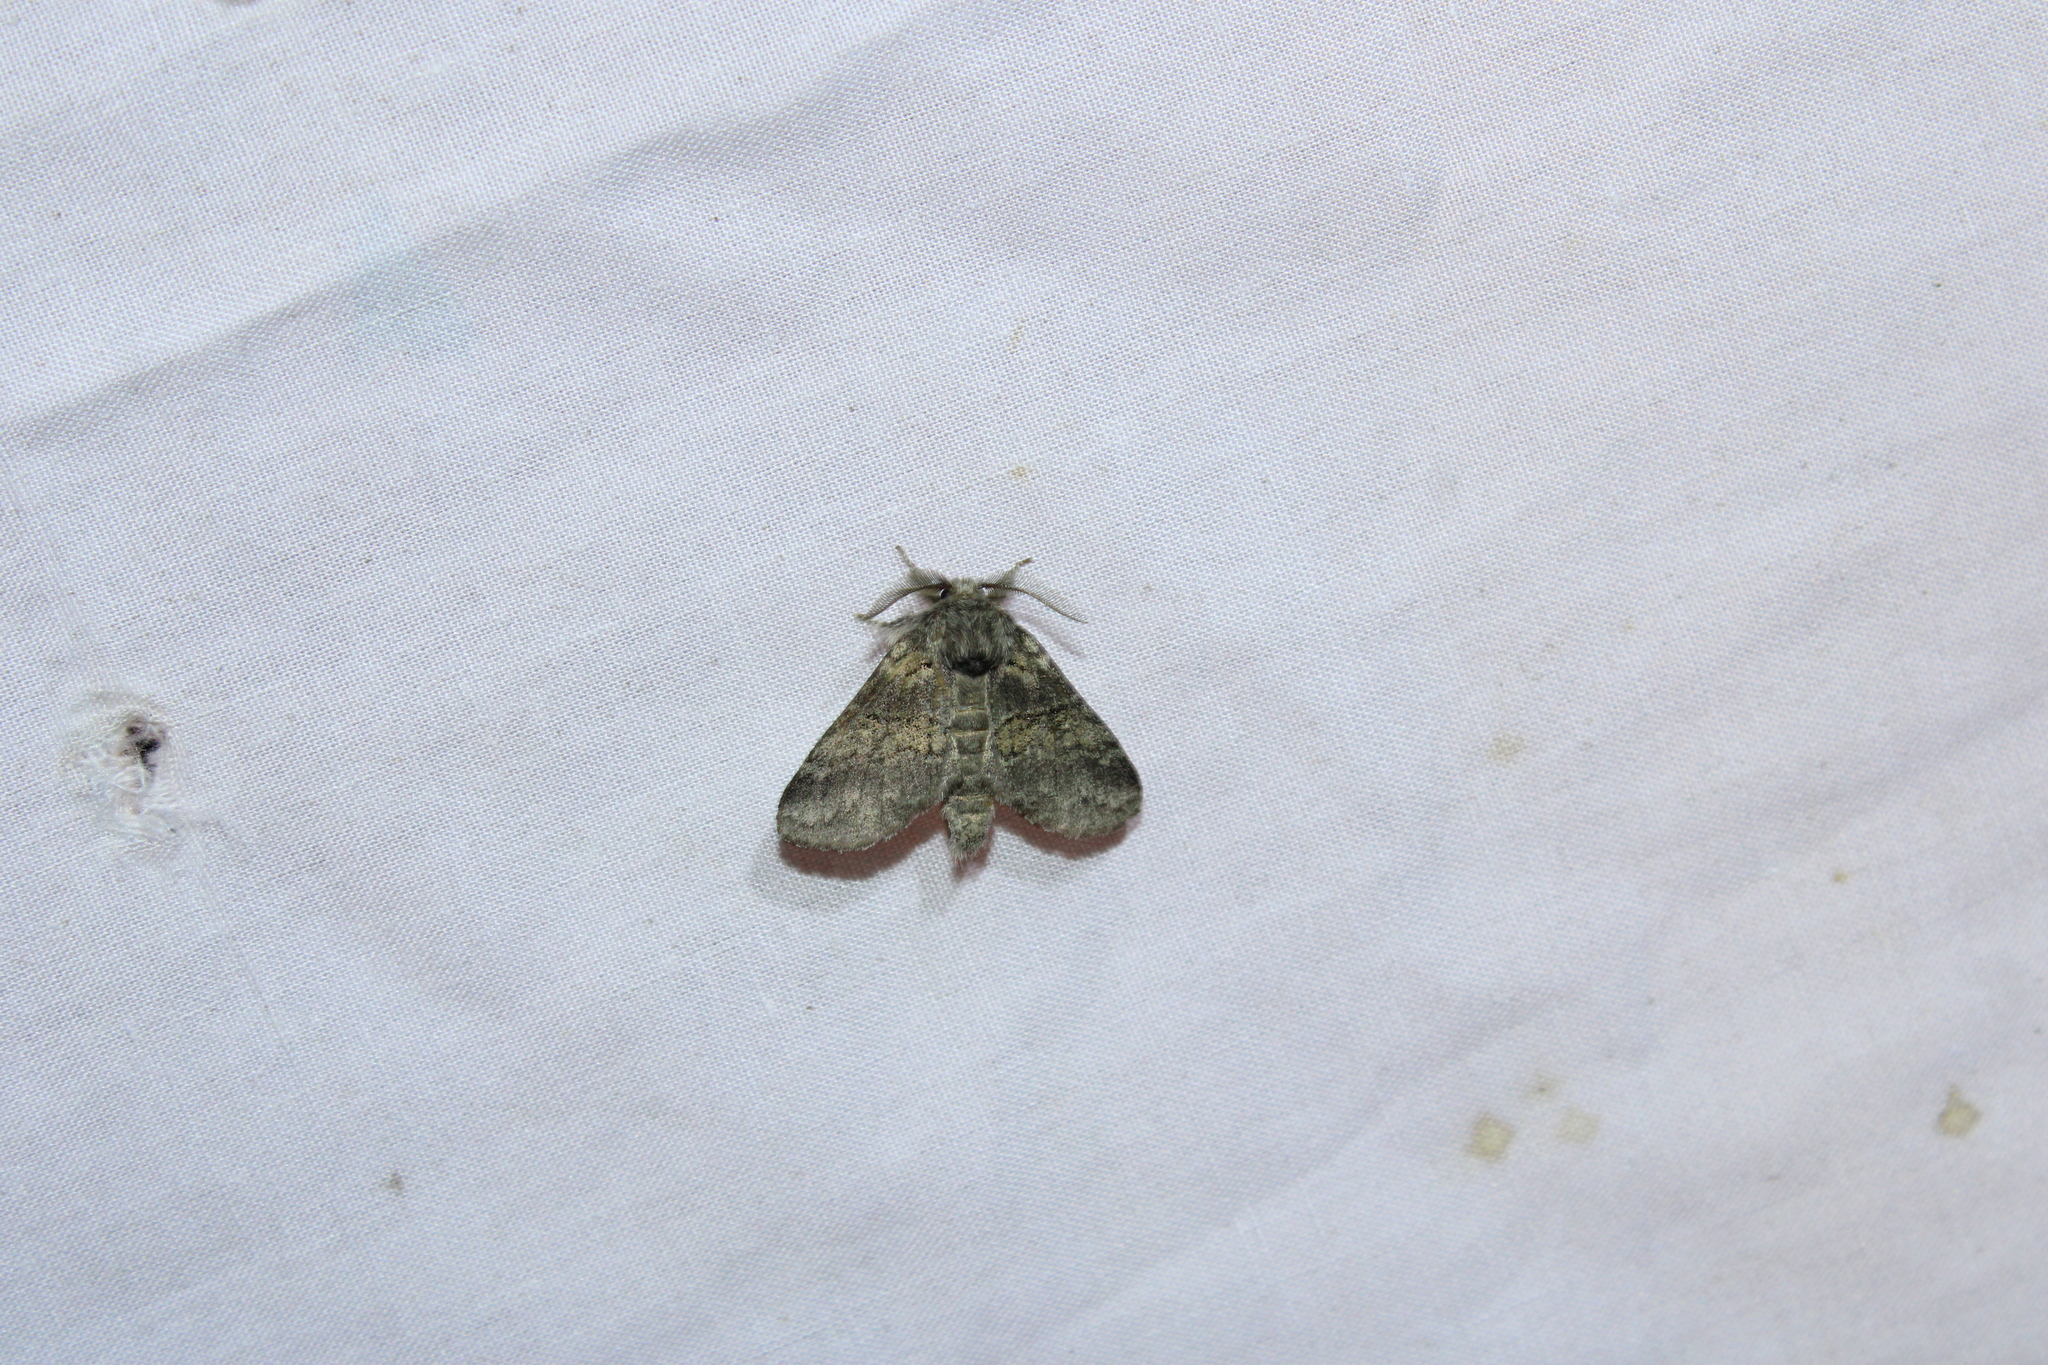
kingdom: Animalia
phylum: Arthropoda
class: Insecta
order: Lepidoptera
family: Notodontidae
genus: Gluphisia
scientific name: Gluphisia septentrionis
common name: Common gluphisia
